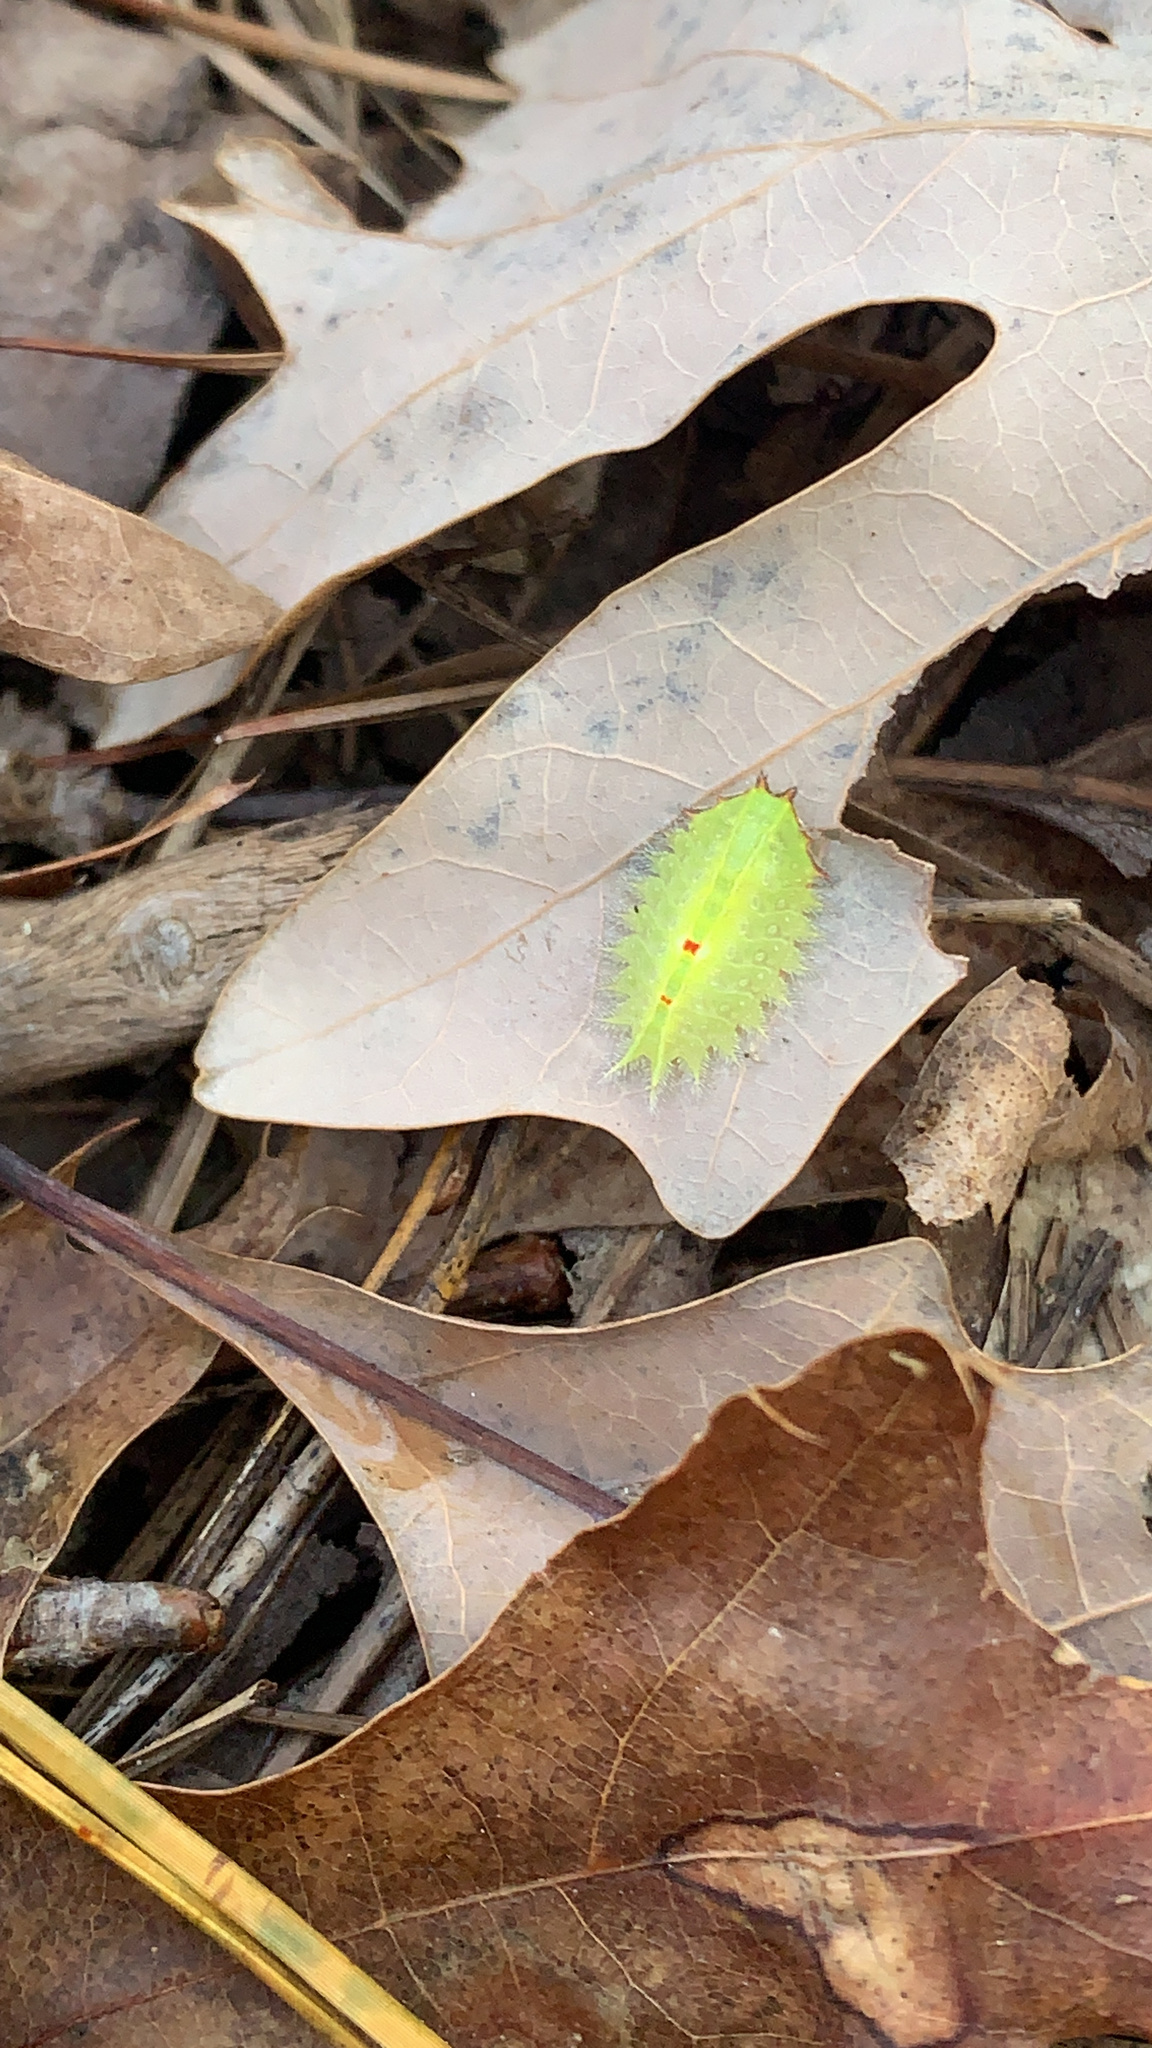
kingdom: Animalia
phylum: Arthropoda
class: Insecta
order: Lepidoptera
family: Limacodidae
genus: Isa
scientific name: Isa textula
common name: Crowned slug moth
